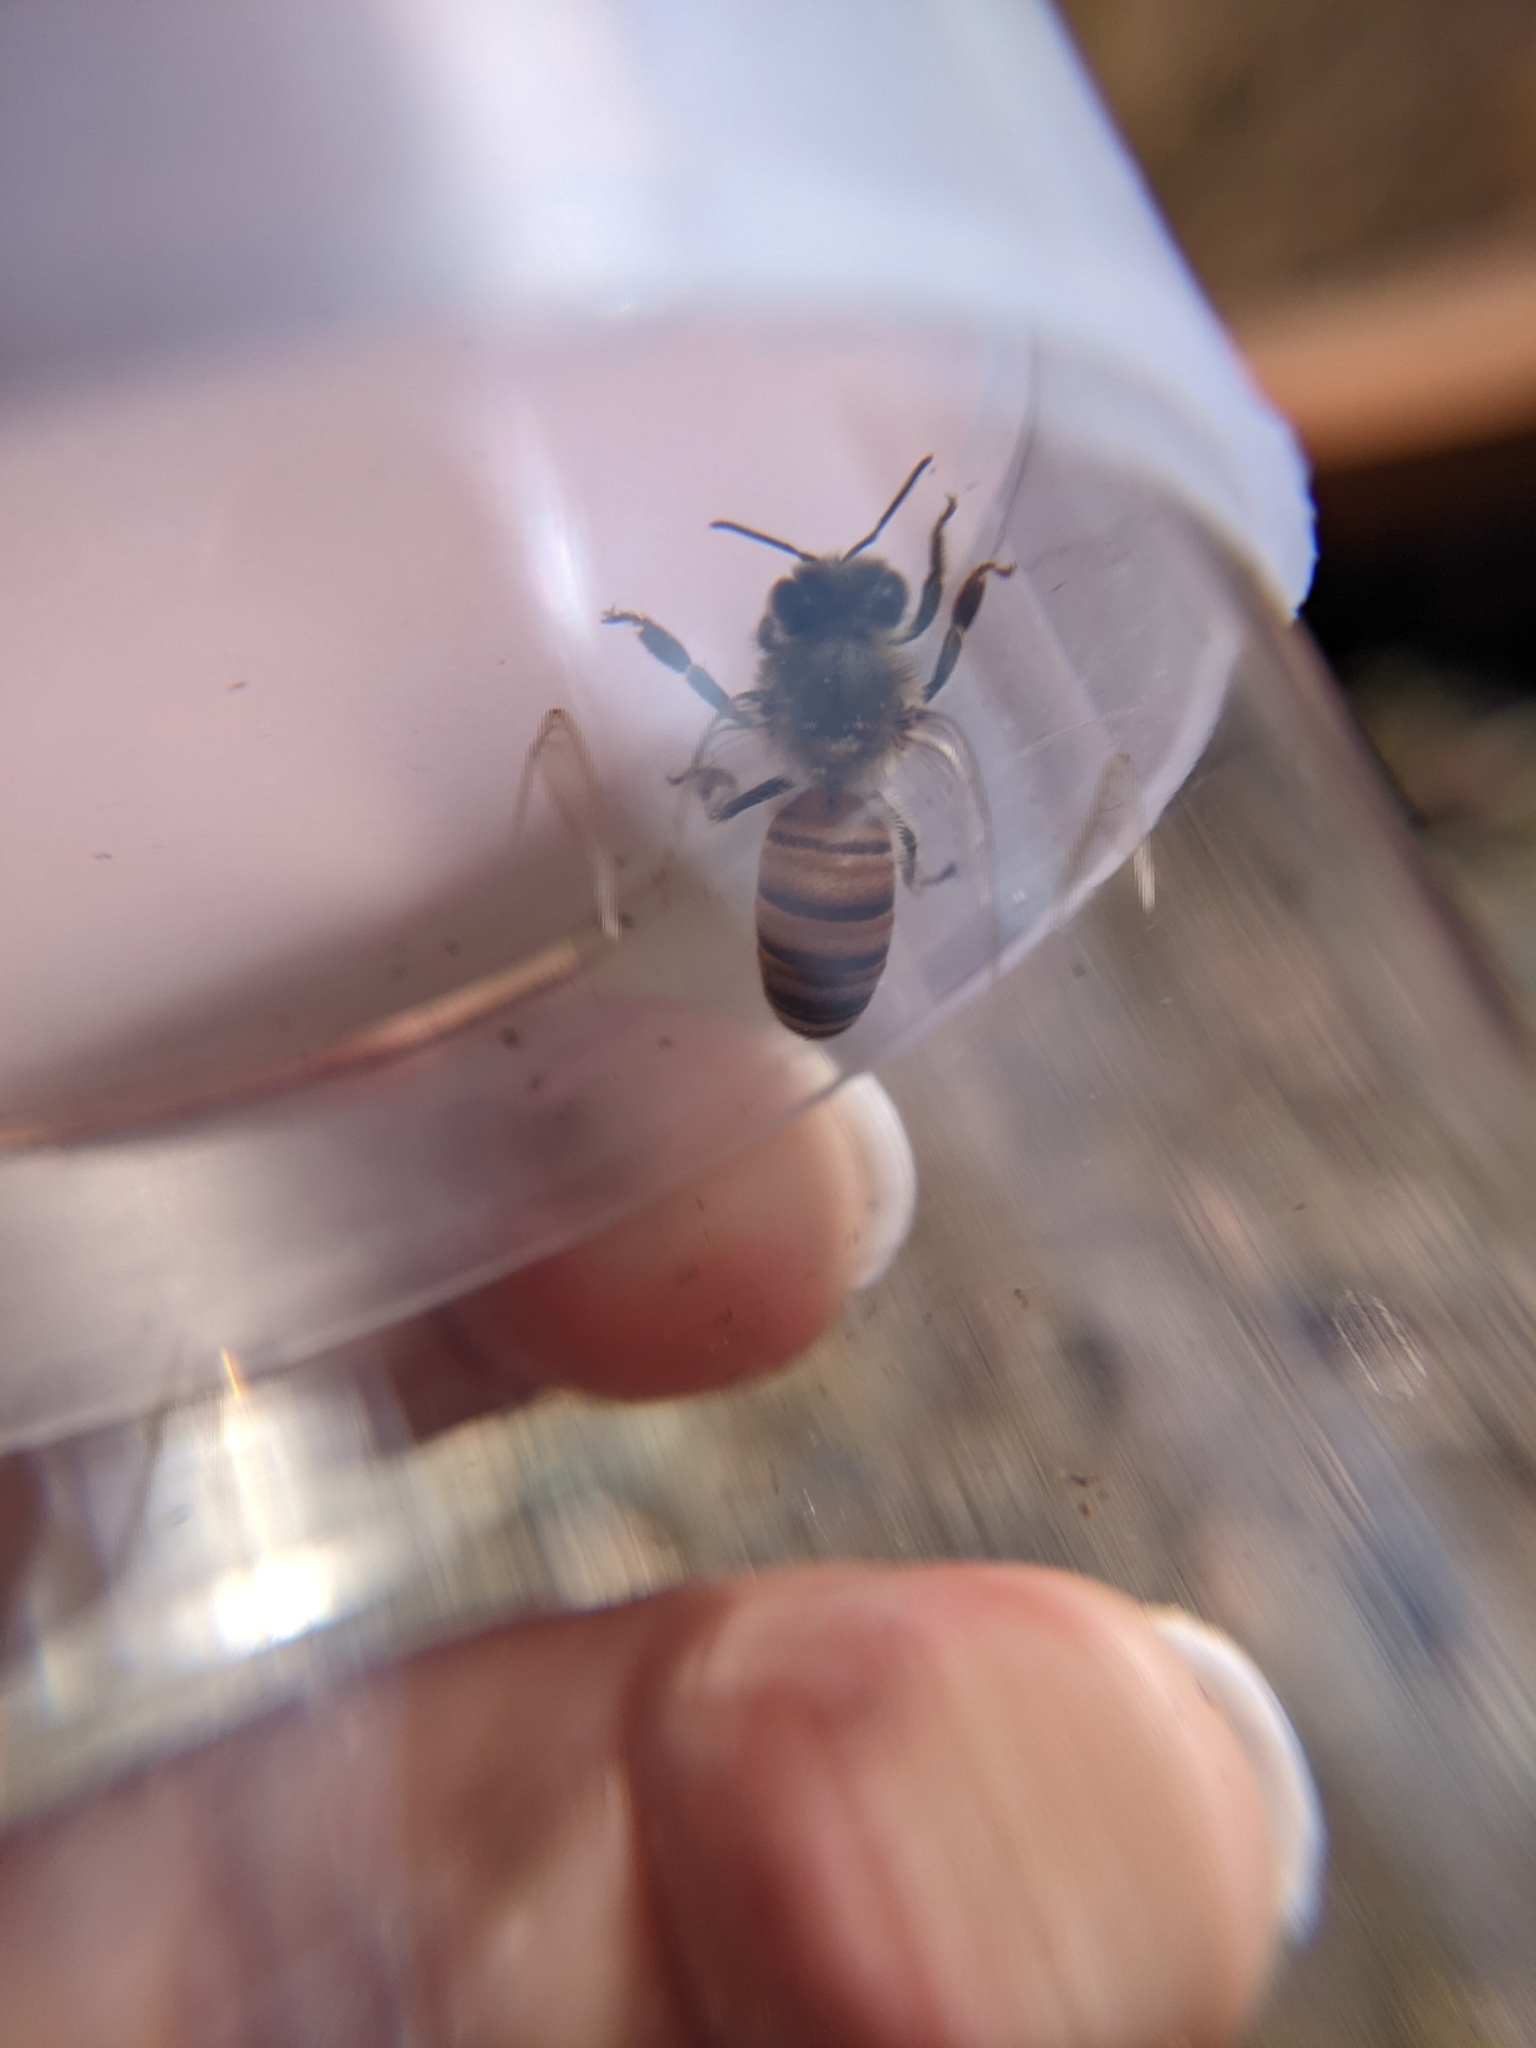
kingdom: Animalia
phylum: Arthropoda
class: Insecta
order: Hymenoptera
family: Apidae
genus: Apis
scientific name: Apis mellifera
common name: Honey bee
